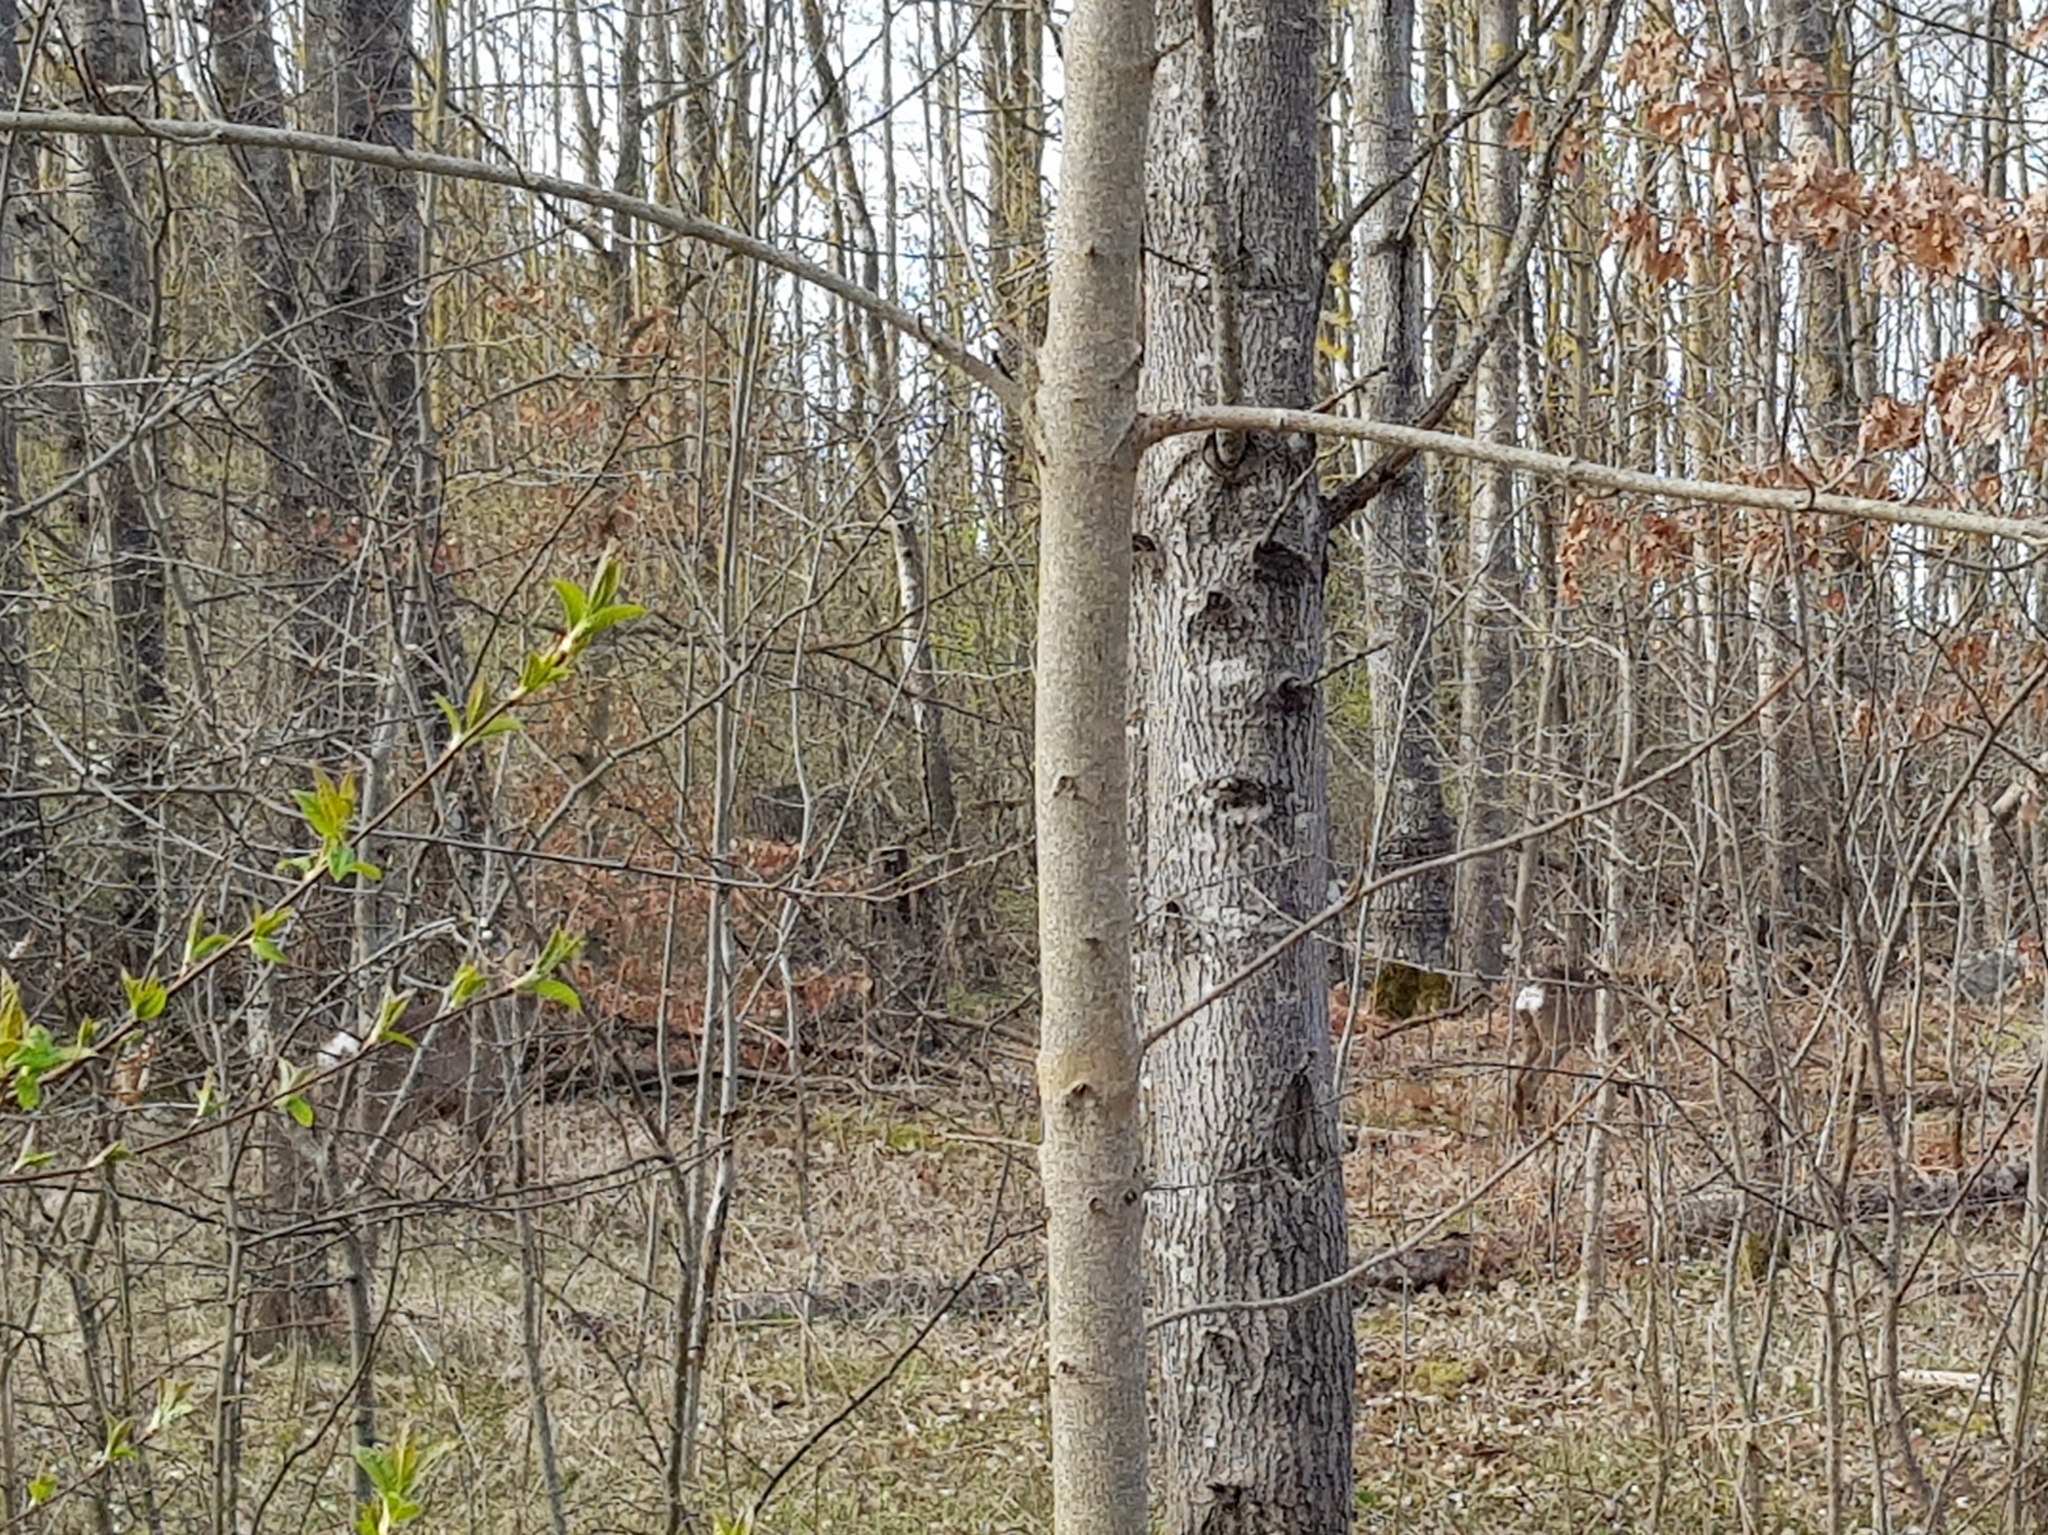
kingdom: Animalia
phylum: Chordata
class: Mammalia
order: Artiodactyla
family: Cervidae
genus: Capreolus
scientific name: Capreolus capreolus
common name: Western roe deer
